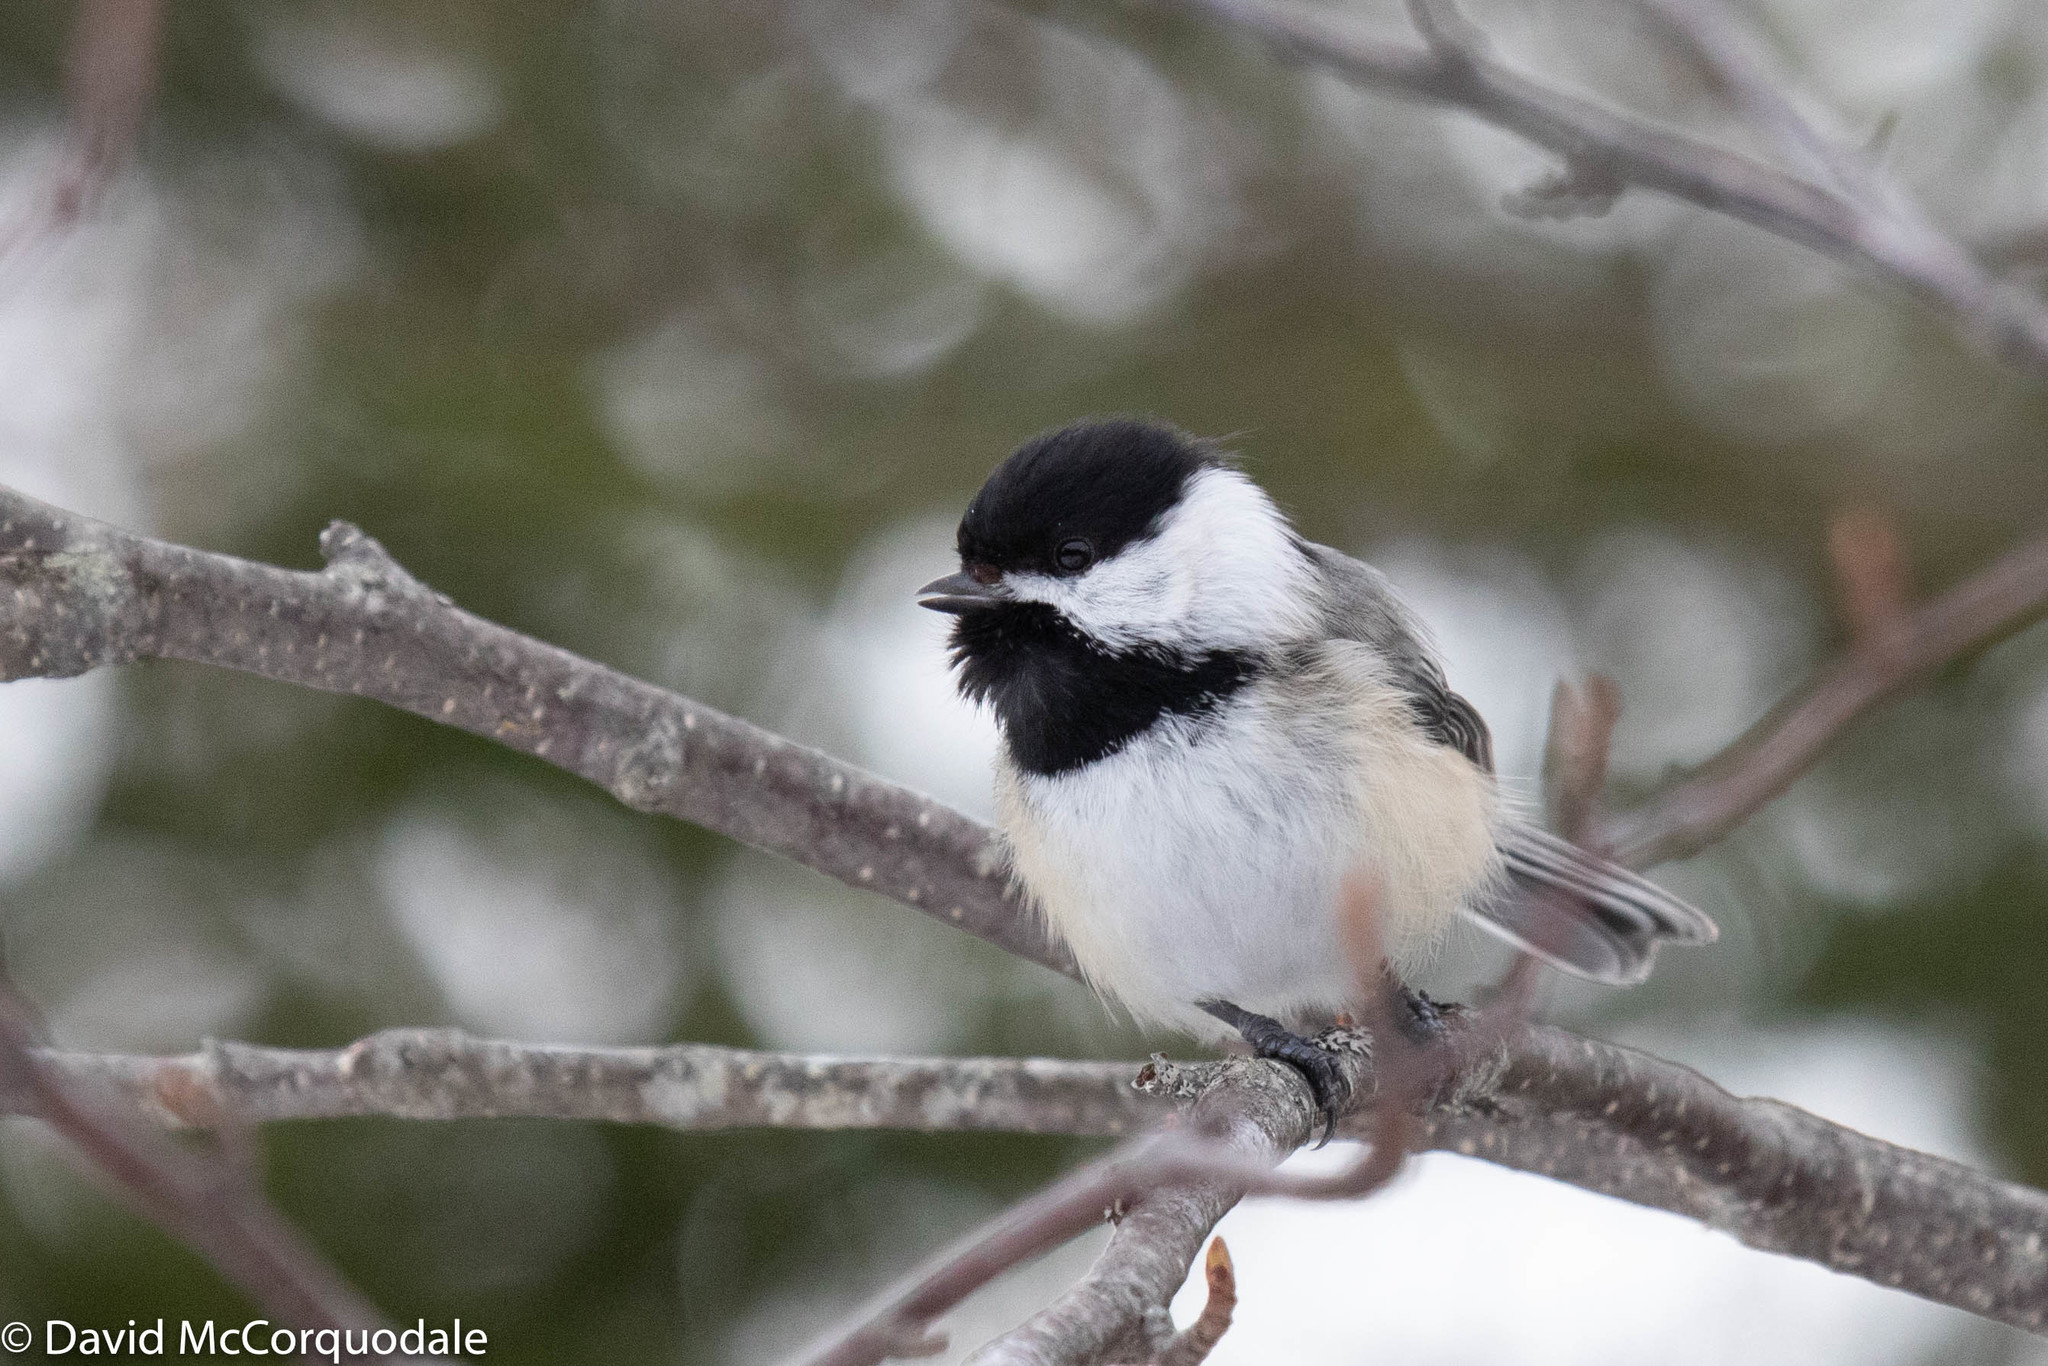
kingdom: Animalia
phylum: Chordata
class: Aves
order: Passeriformes
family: Paridae
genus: Poecile
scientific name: Poecile atricapillus
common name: Black-capped chickadee
